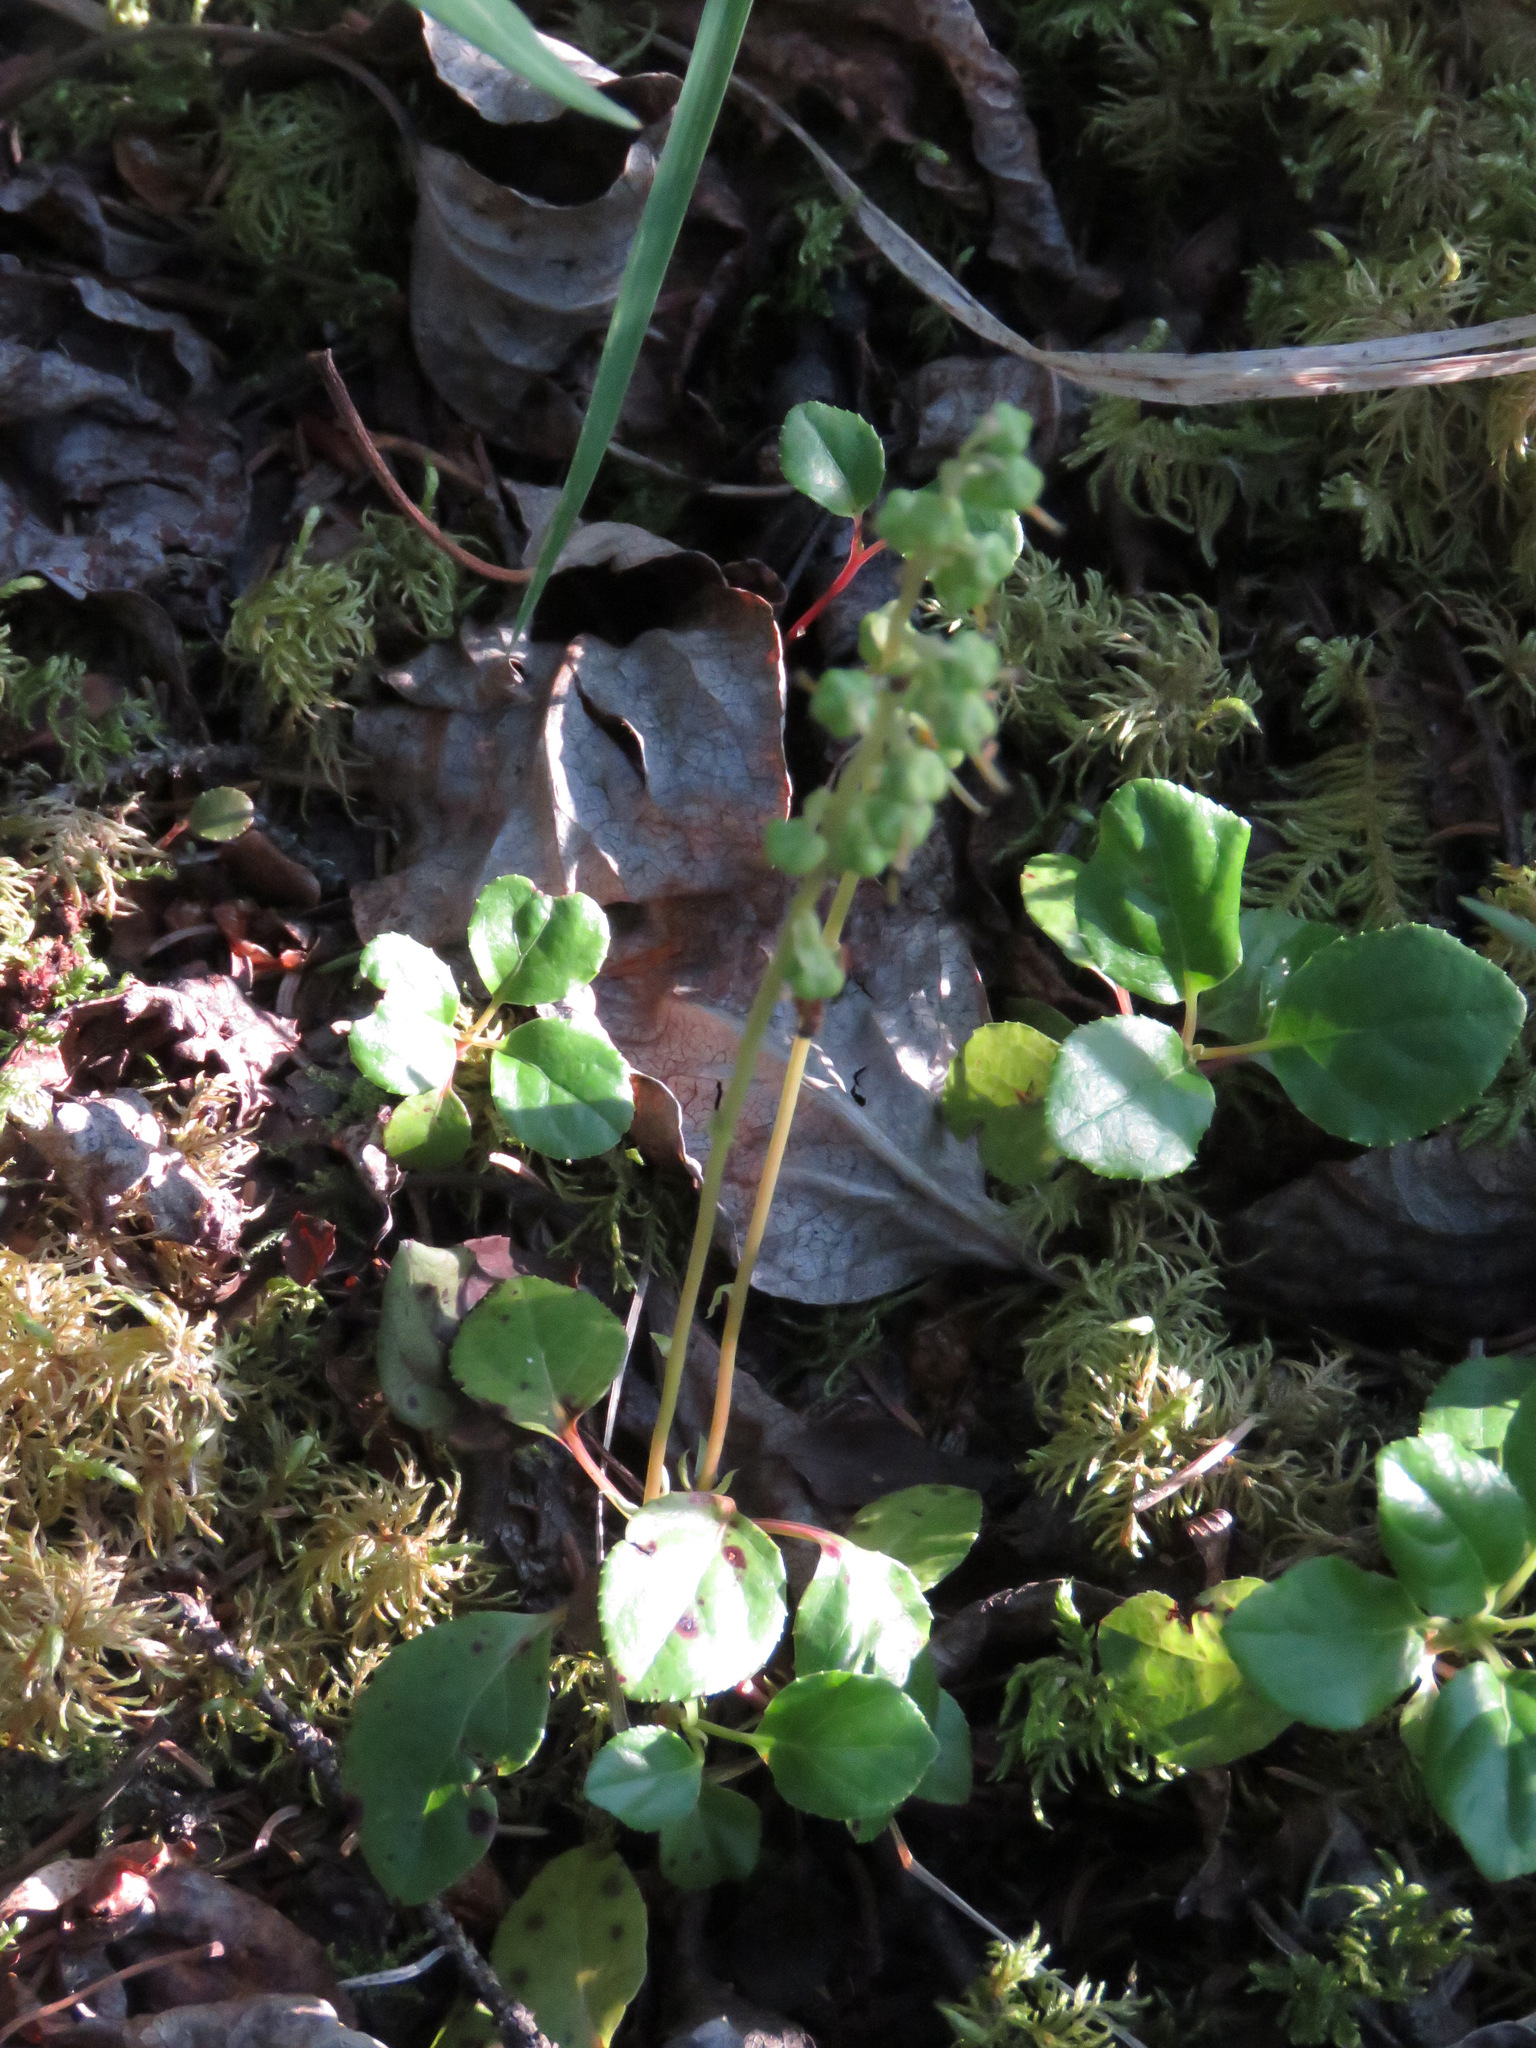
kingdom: Plantae
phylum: Tracheophyta
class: Magnoliopsida
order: Ericales
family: Ericaceae
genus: Orthilia
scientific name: Orthilia secunda
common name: One-sided orthilia
